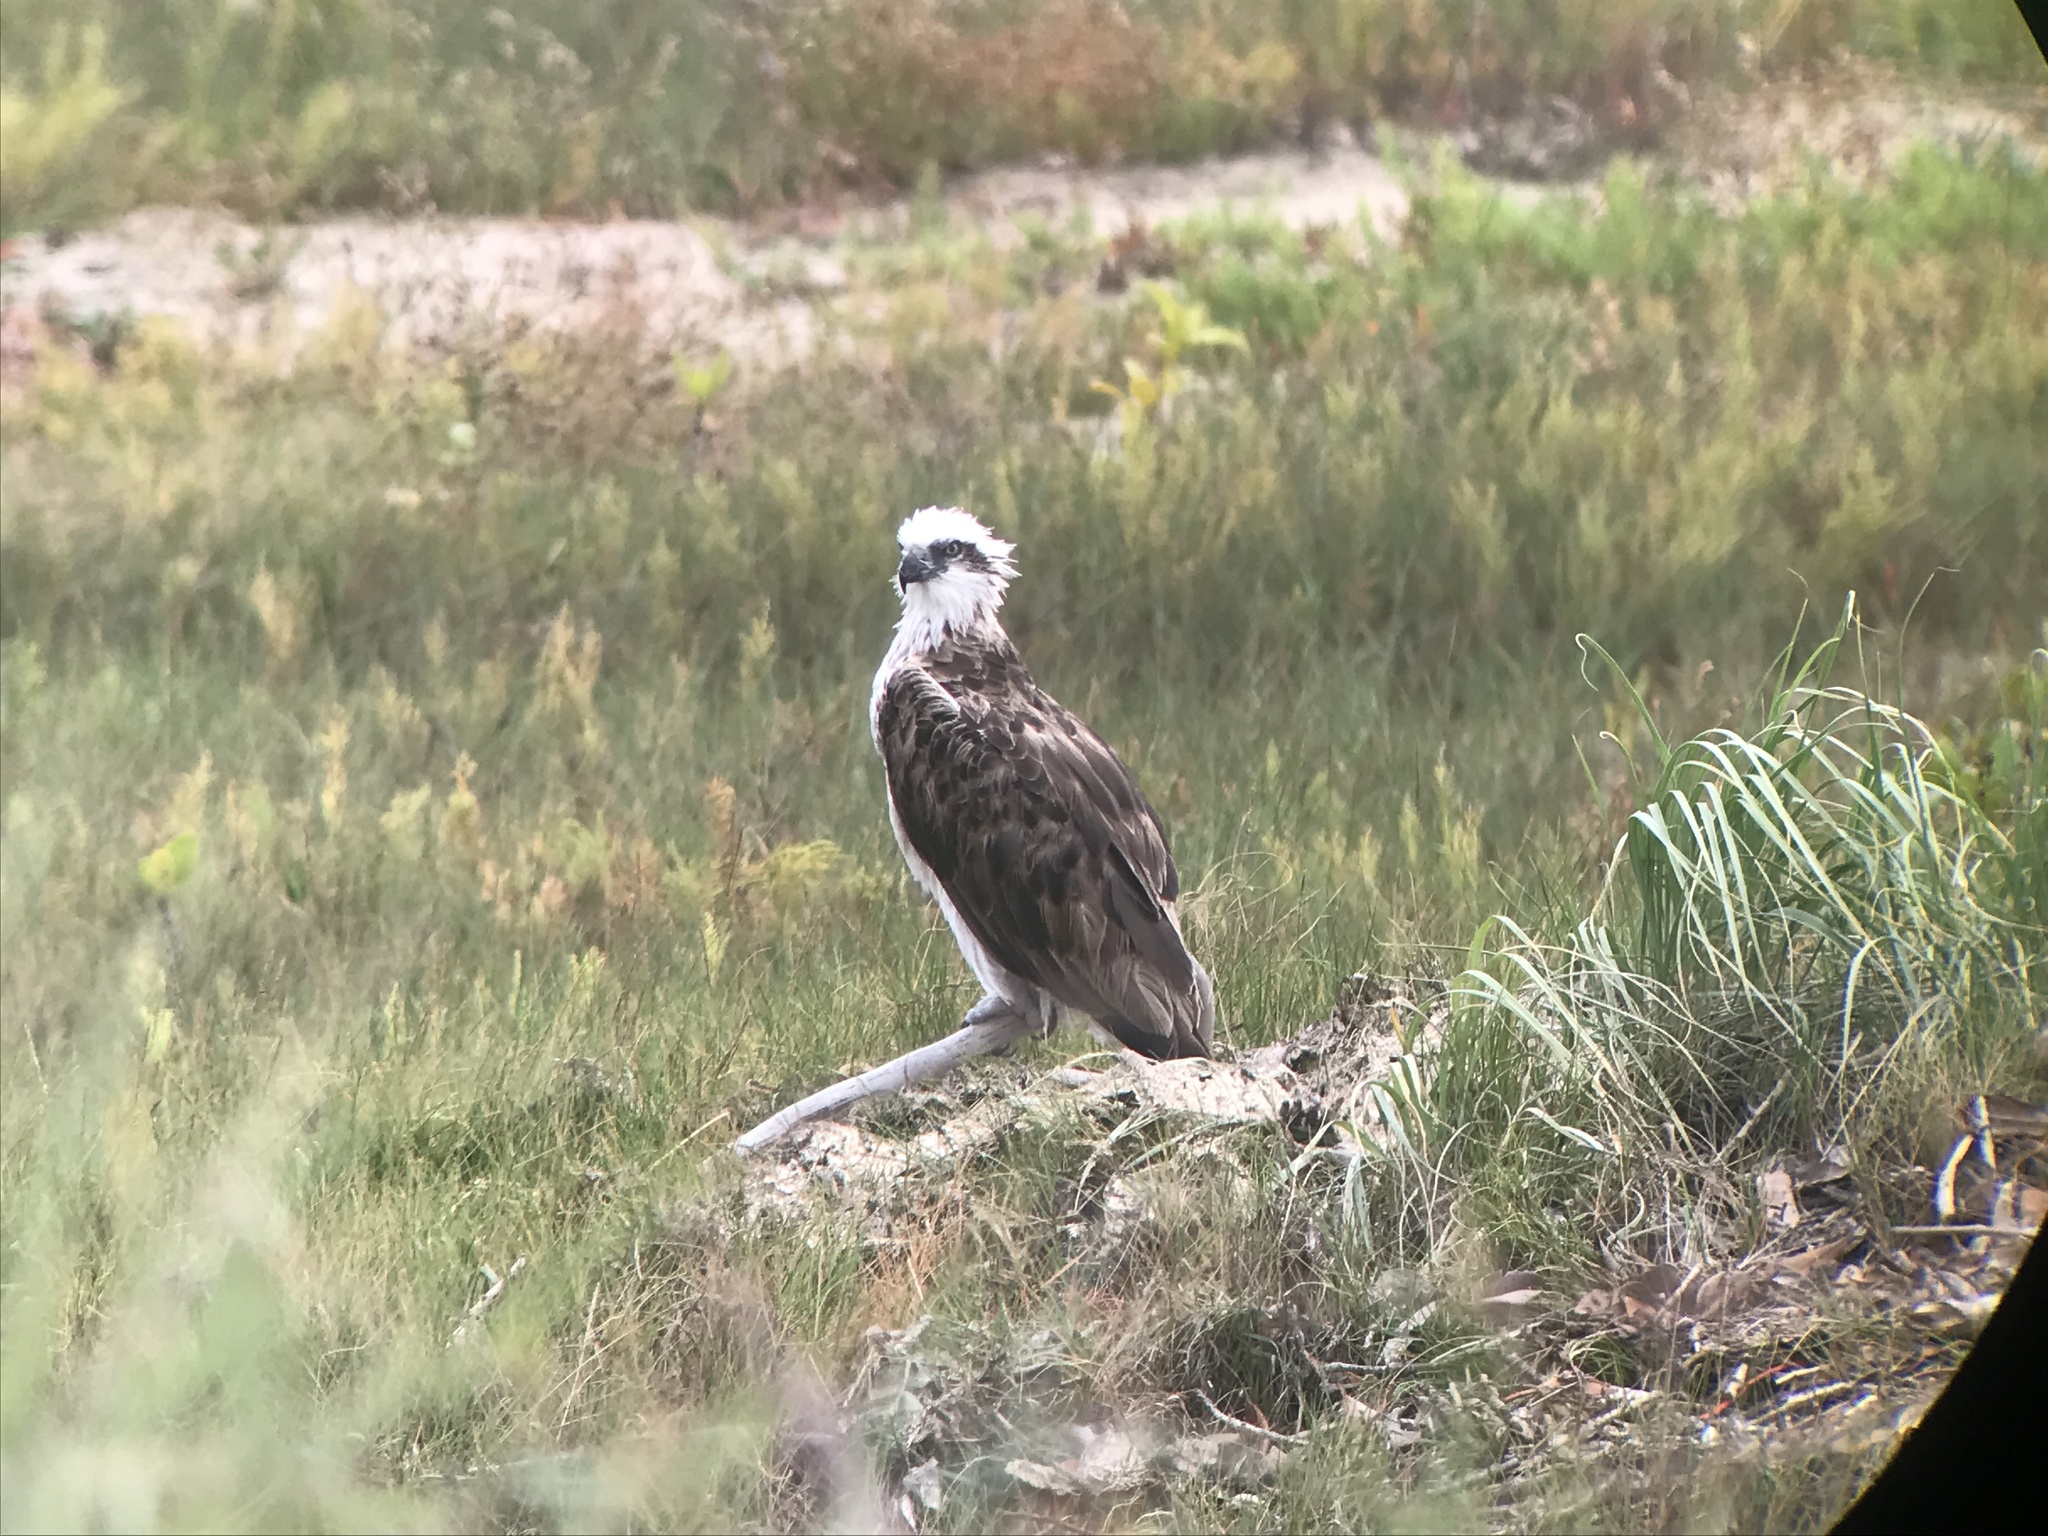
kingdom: Animalia
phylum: Chordata
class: Aves
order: Accipitriformes
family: Pandionidae
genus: Pandion
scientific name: Pandion haliaetus
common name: Osprey
